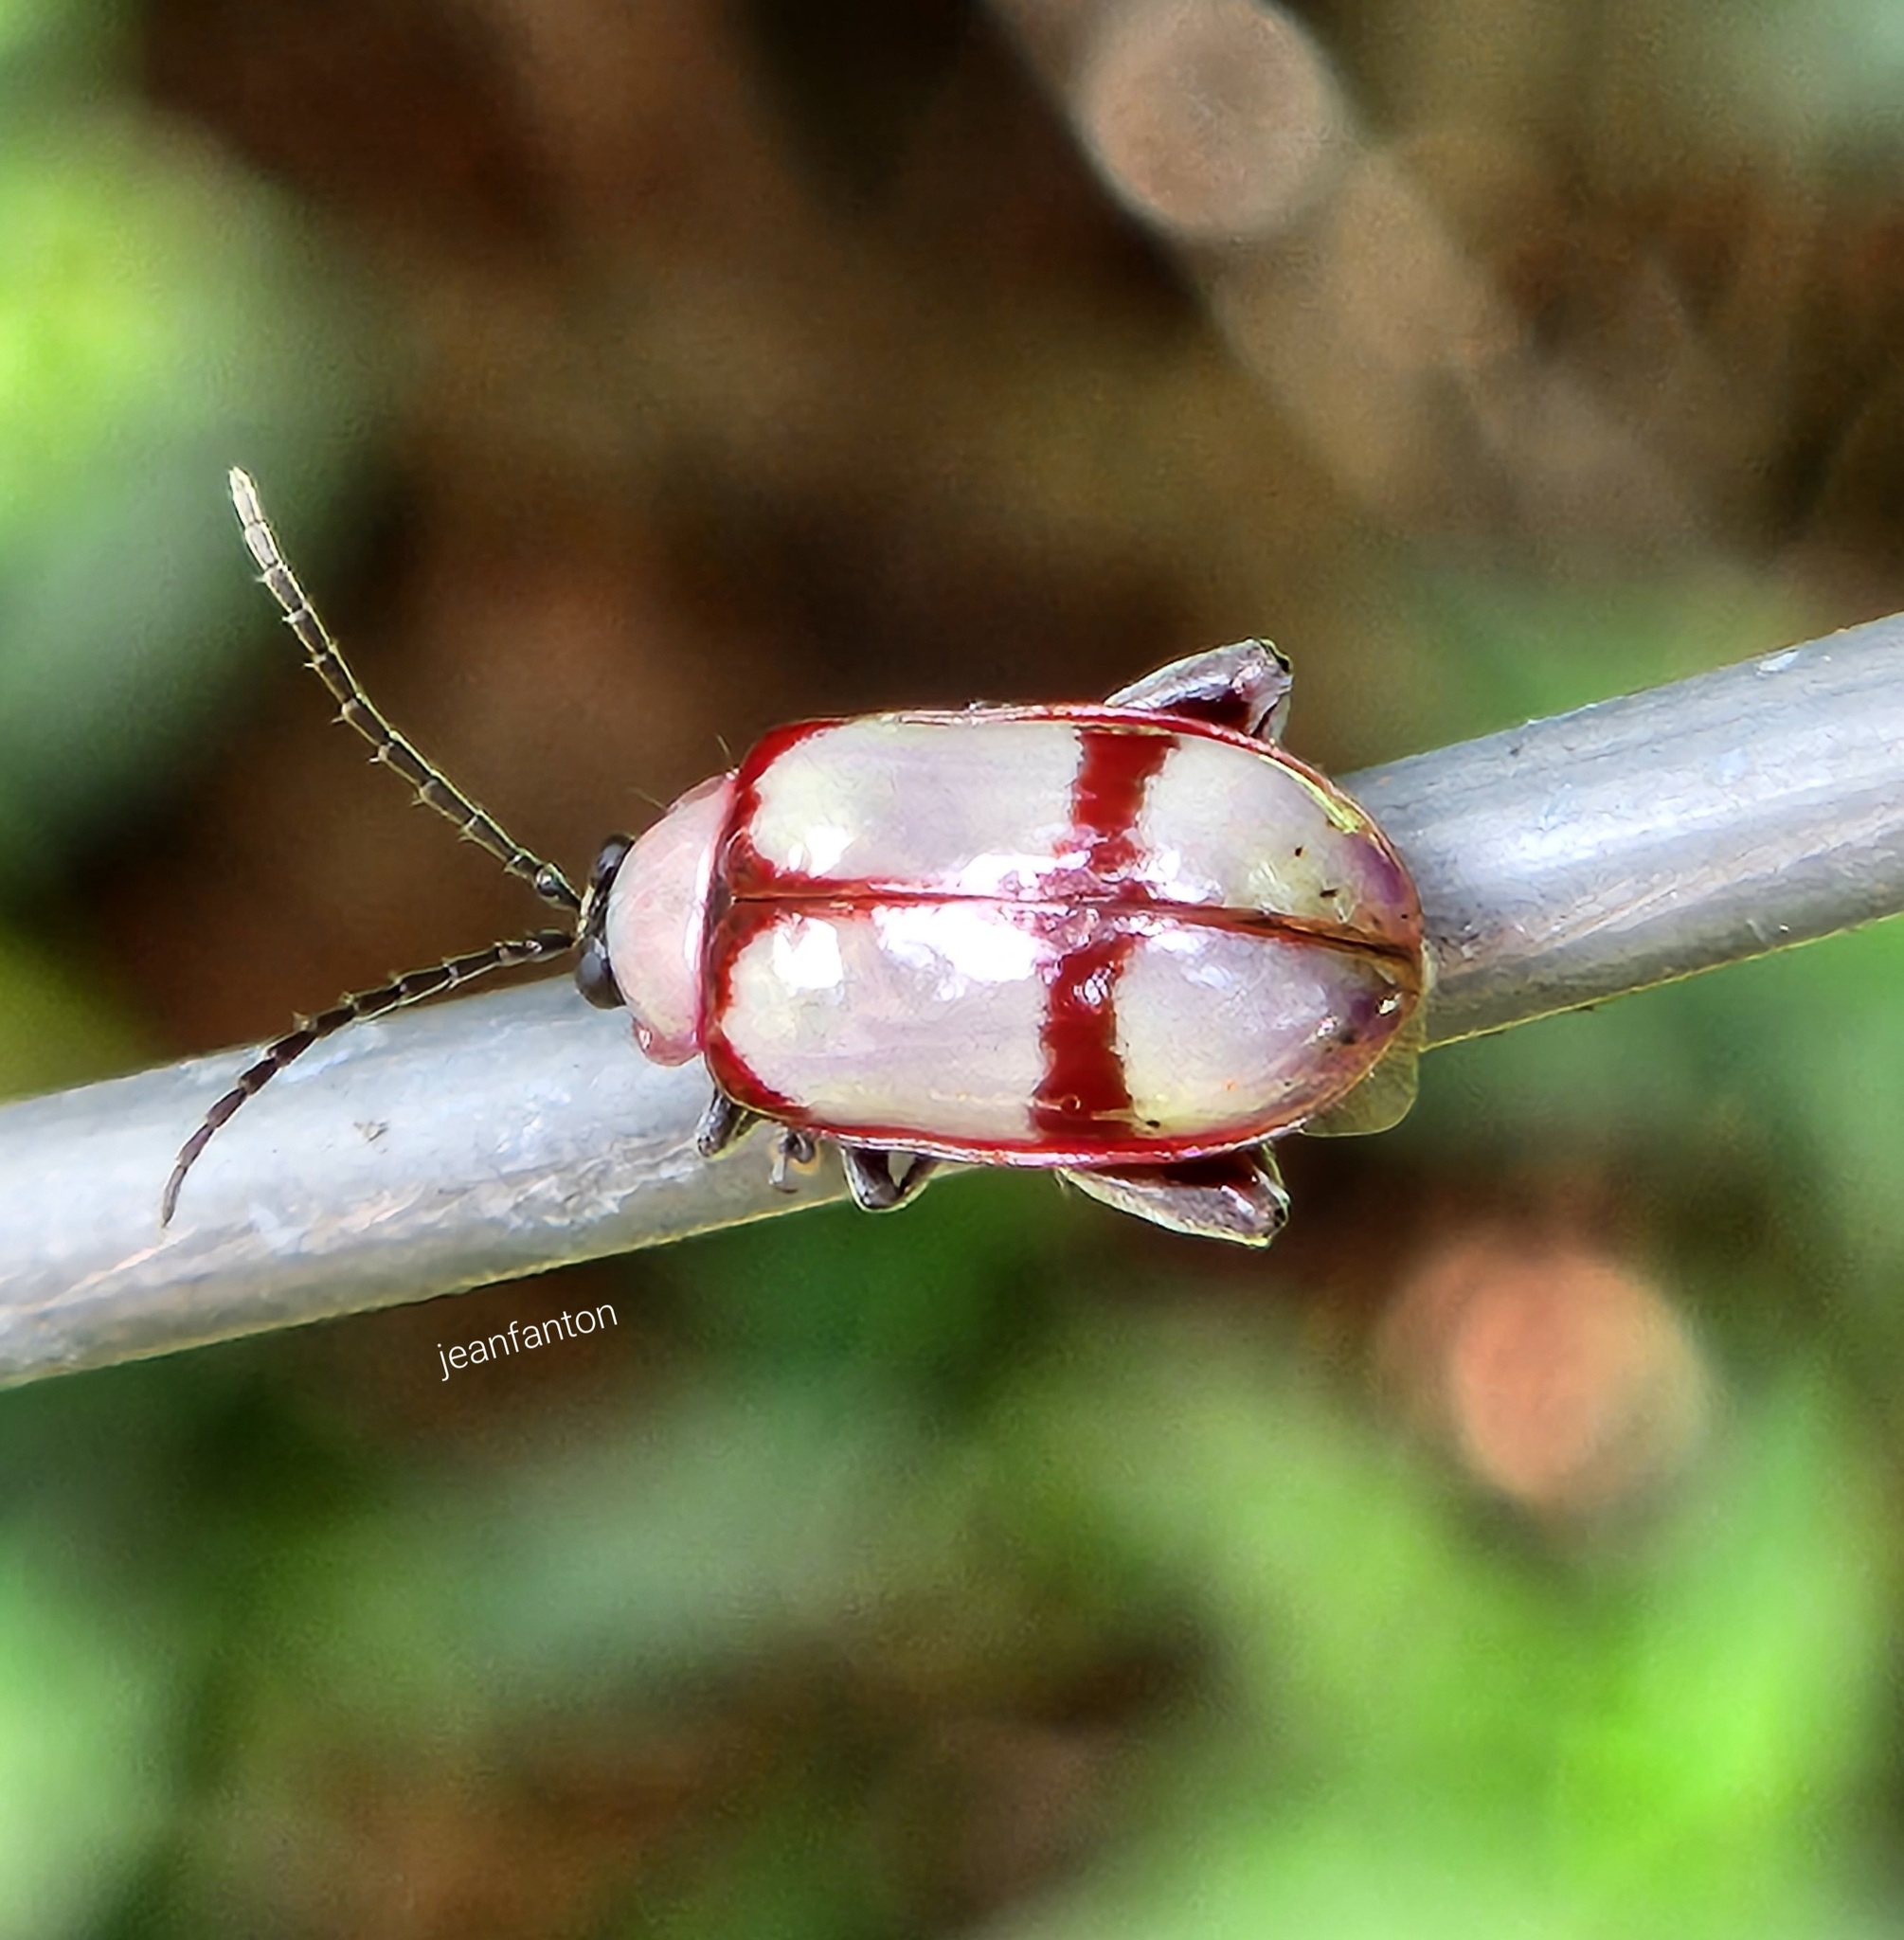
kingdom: Animalia
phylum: Arthropoda
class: Insecta
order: Coleoptera
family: Chrysomelidae
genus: Omophoita
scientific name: Omophoita
